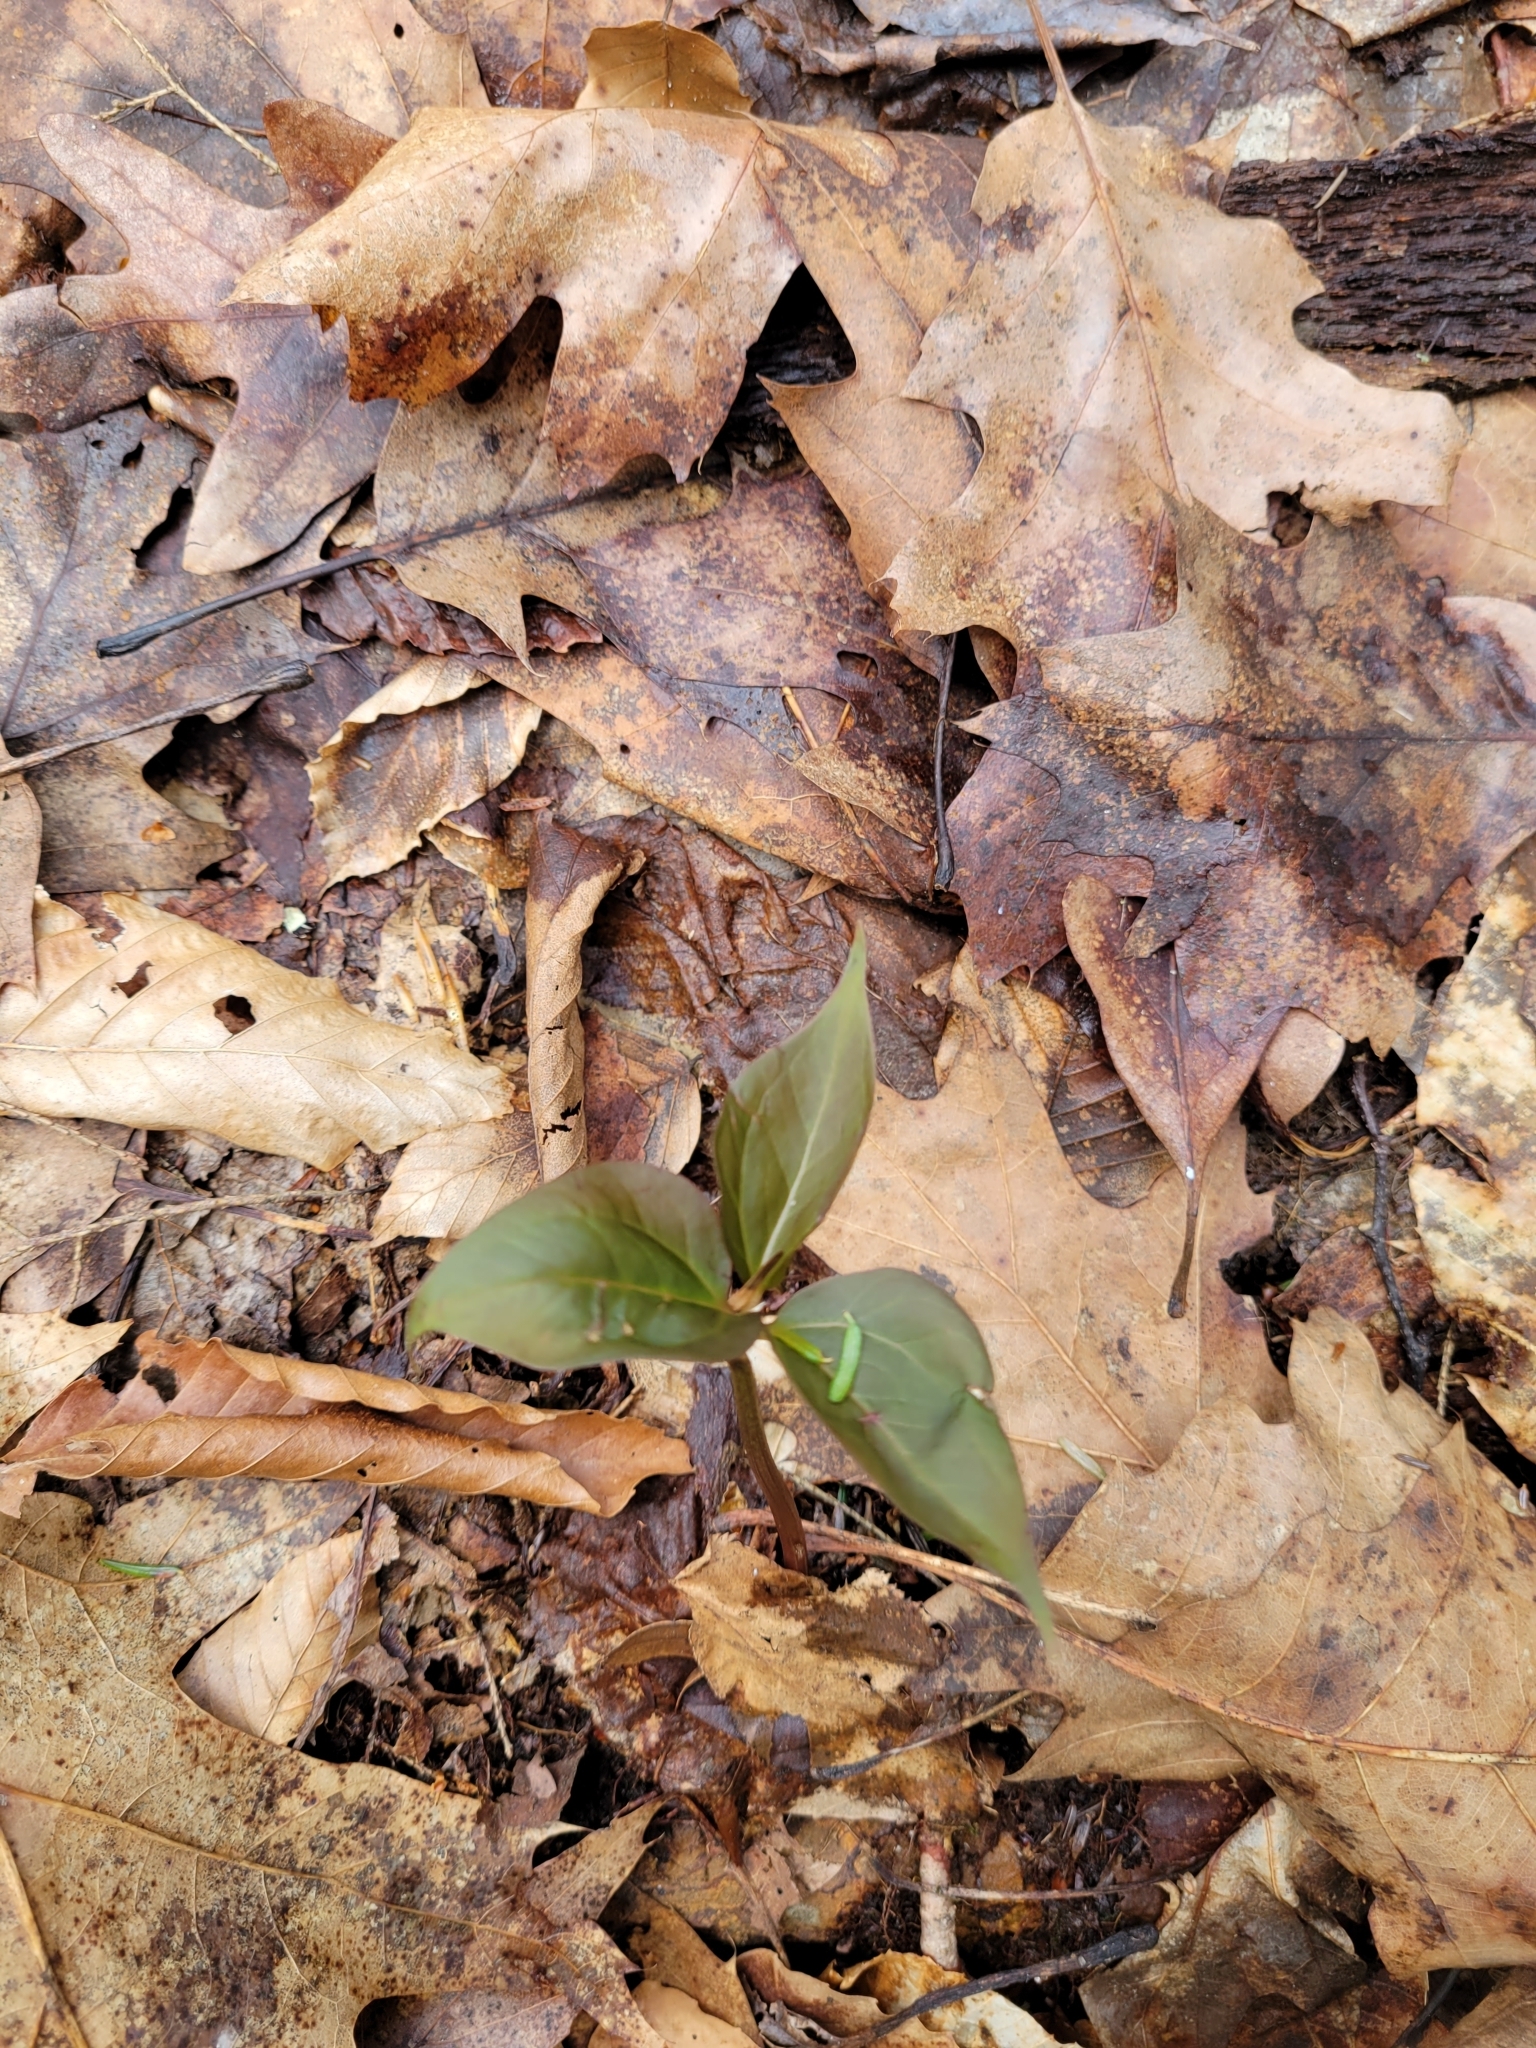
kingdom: Plantae
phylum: Tracheophyta
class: Liliopsida
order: Liliales
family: Melanthiaceae
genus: Trillium
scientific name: Trillium undulatum
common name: Paint trillium
